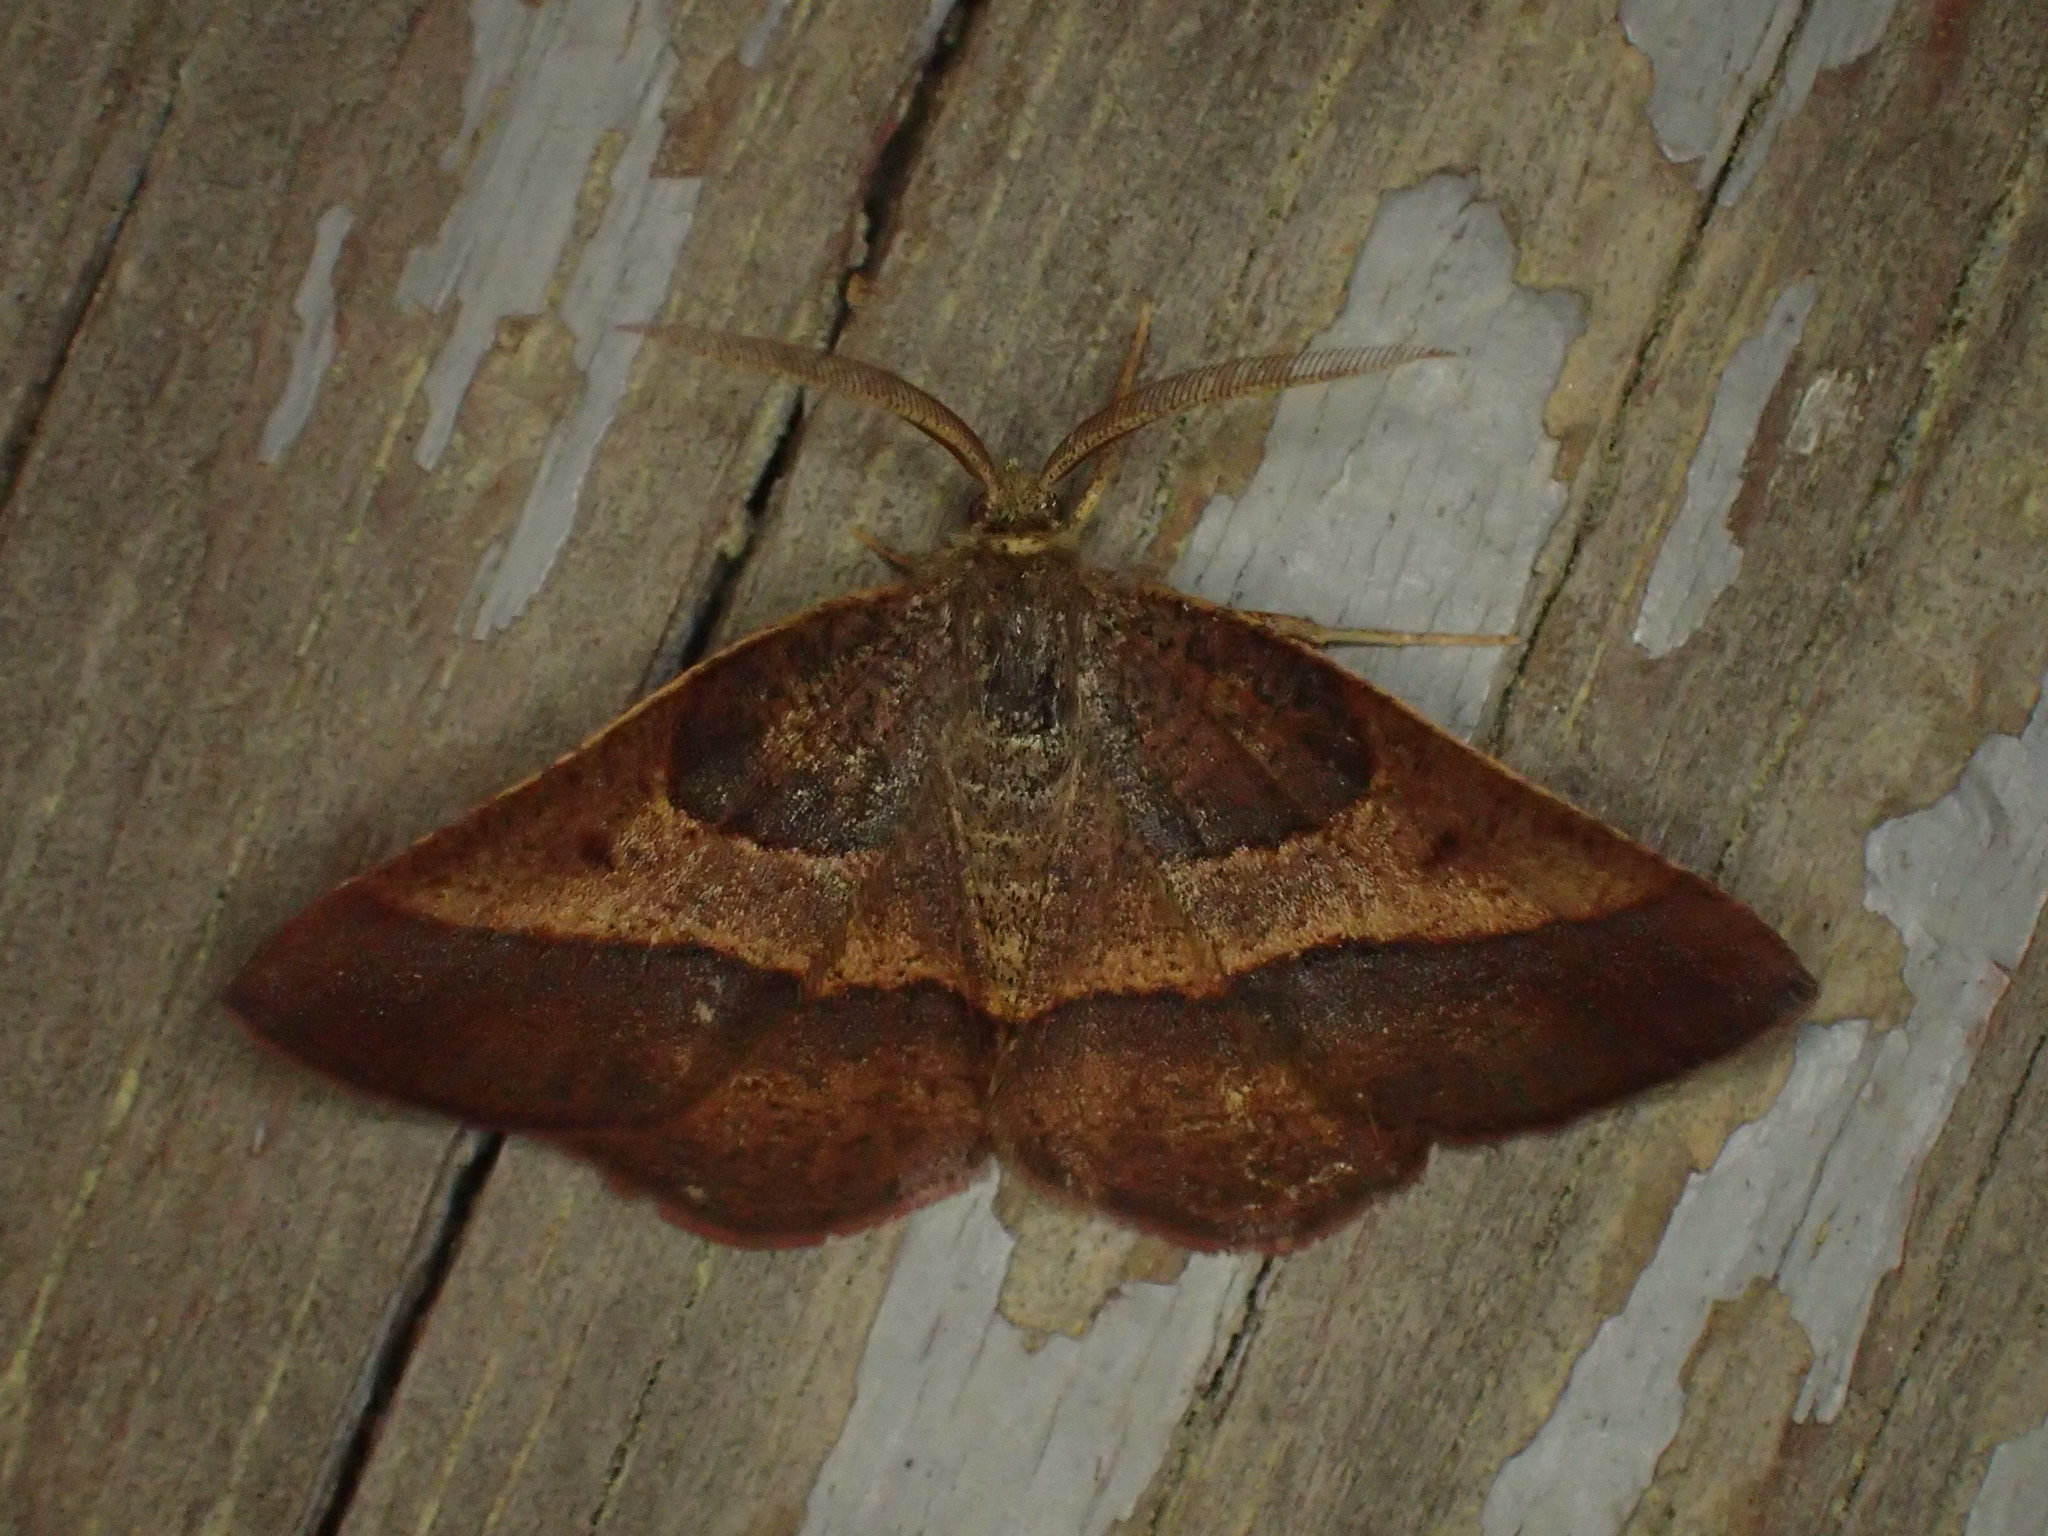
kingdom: Animalia
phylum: Arthropoda
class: Insecta
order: Lepidoptera
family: Geometridae
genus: Metarranthis
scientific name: Metarranthis obfirmaria
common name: Yellow-washed metarranthis
